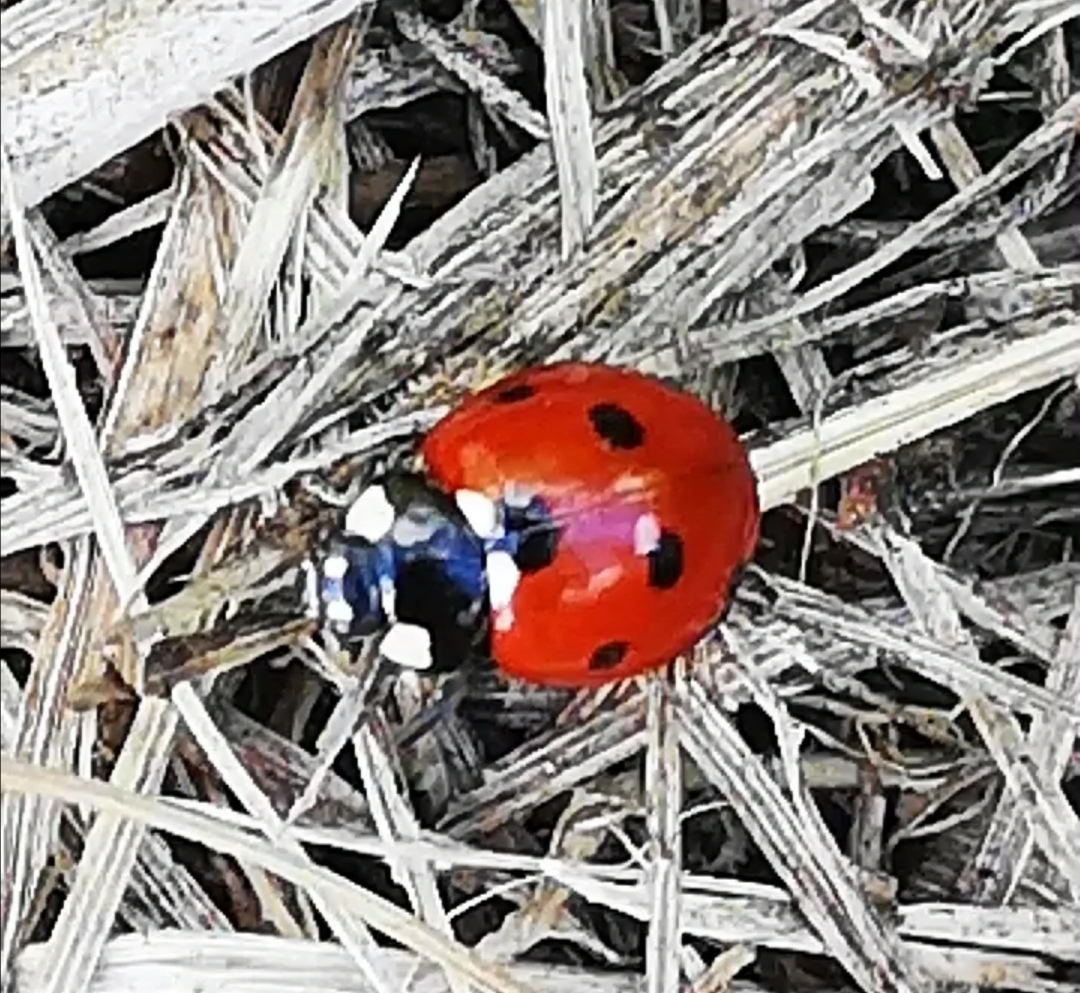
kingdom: Animalia
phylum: Arthropoda
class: Insecta
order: Coleoptera
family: Coccinellidae
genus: Coccinella
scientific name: Coccinella septempunctata
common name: Sevenspotted lady beetle
